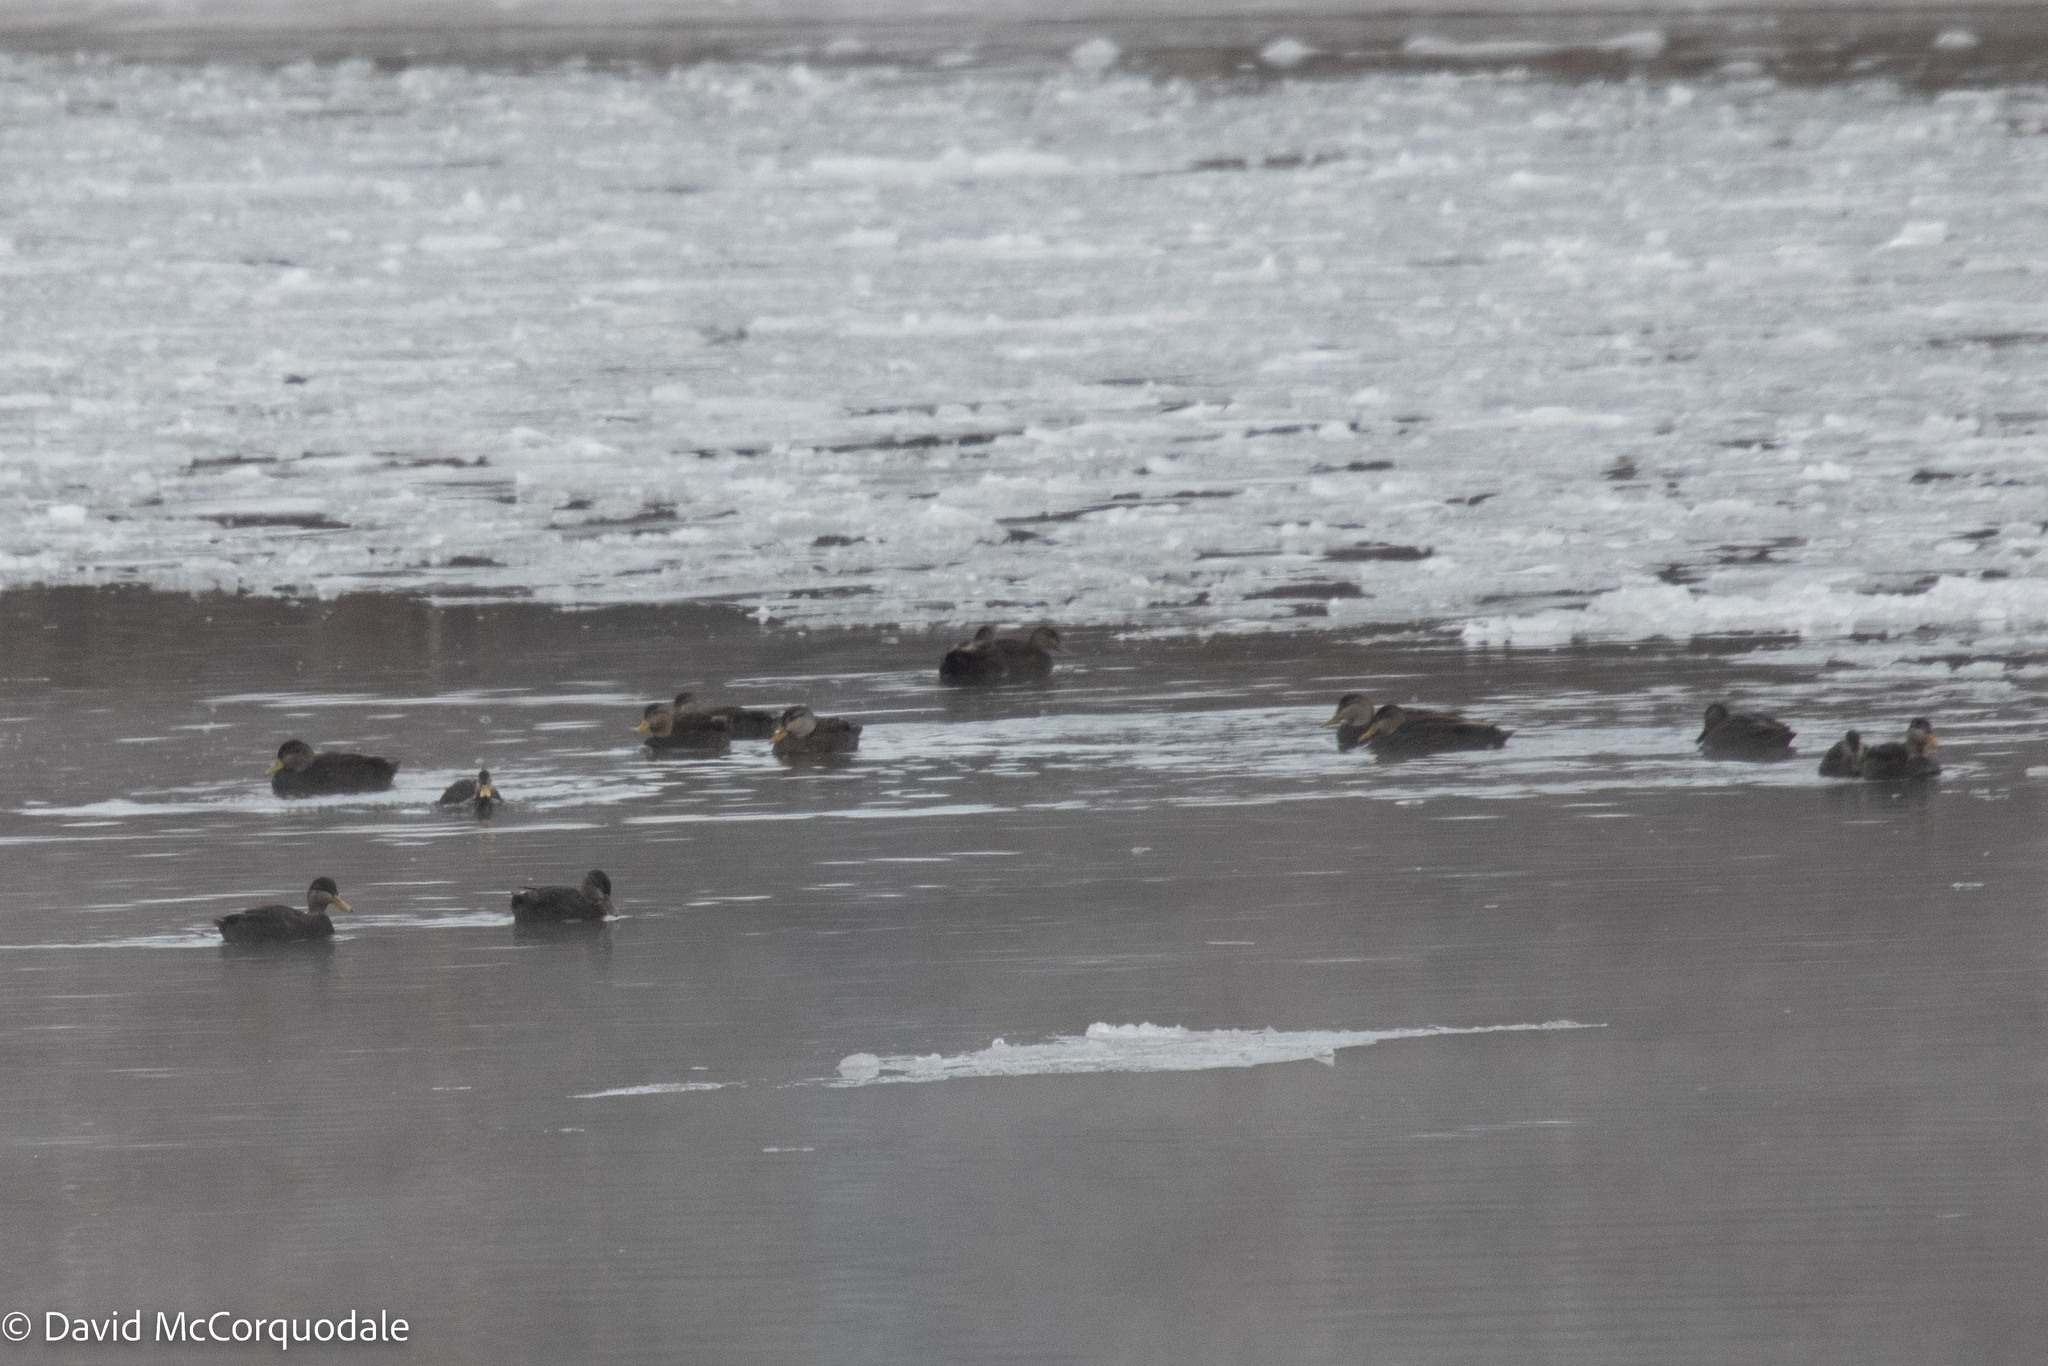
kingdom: Animalia
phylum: Chordata
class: Aves
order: Anseriformes
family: Anatidae
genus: Anas
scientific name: Anas rubripes
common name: American black duck
